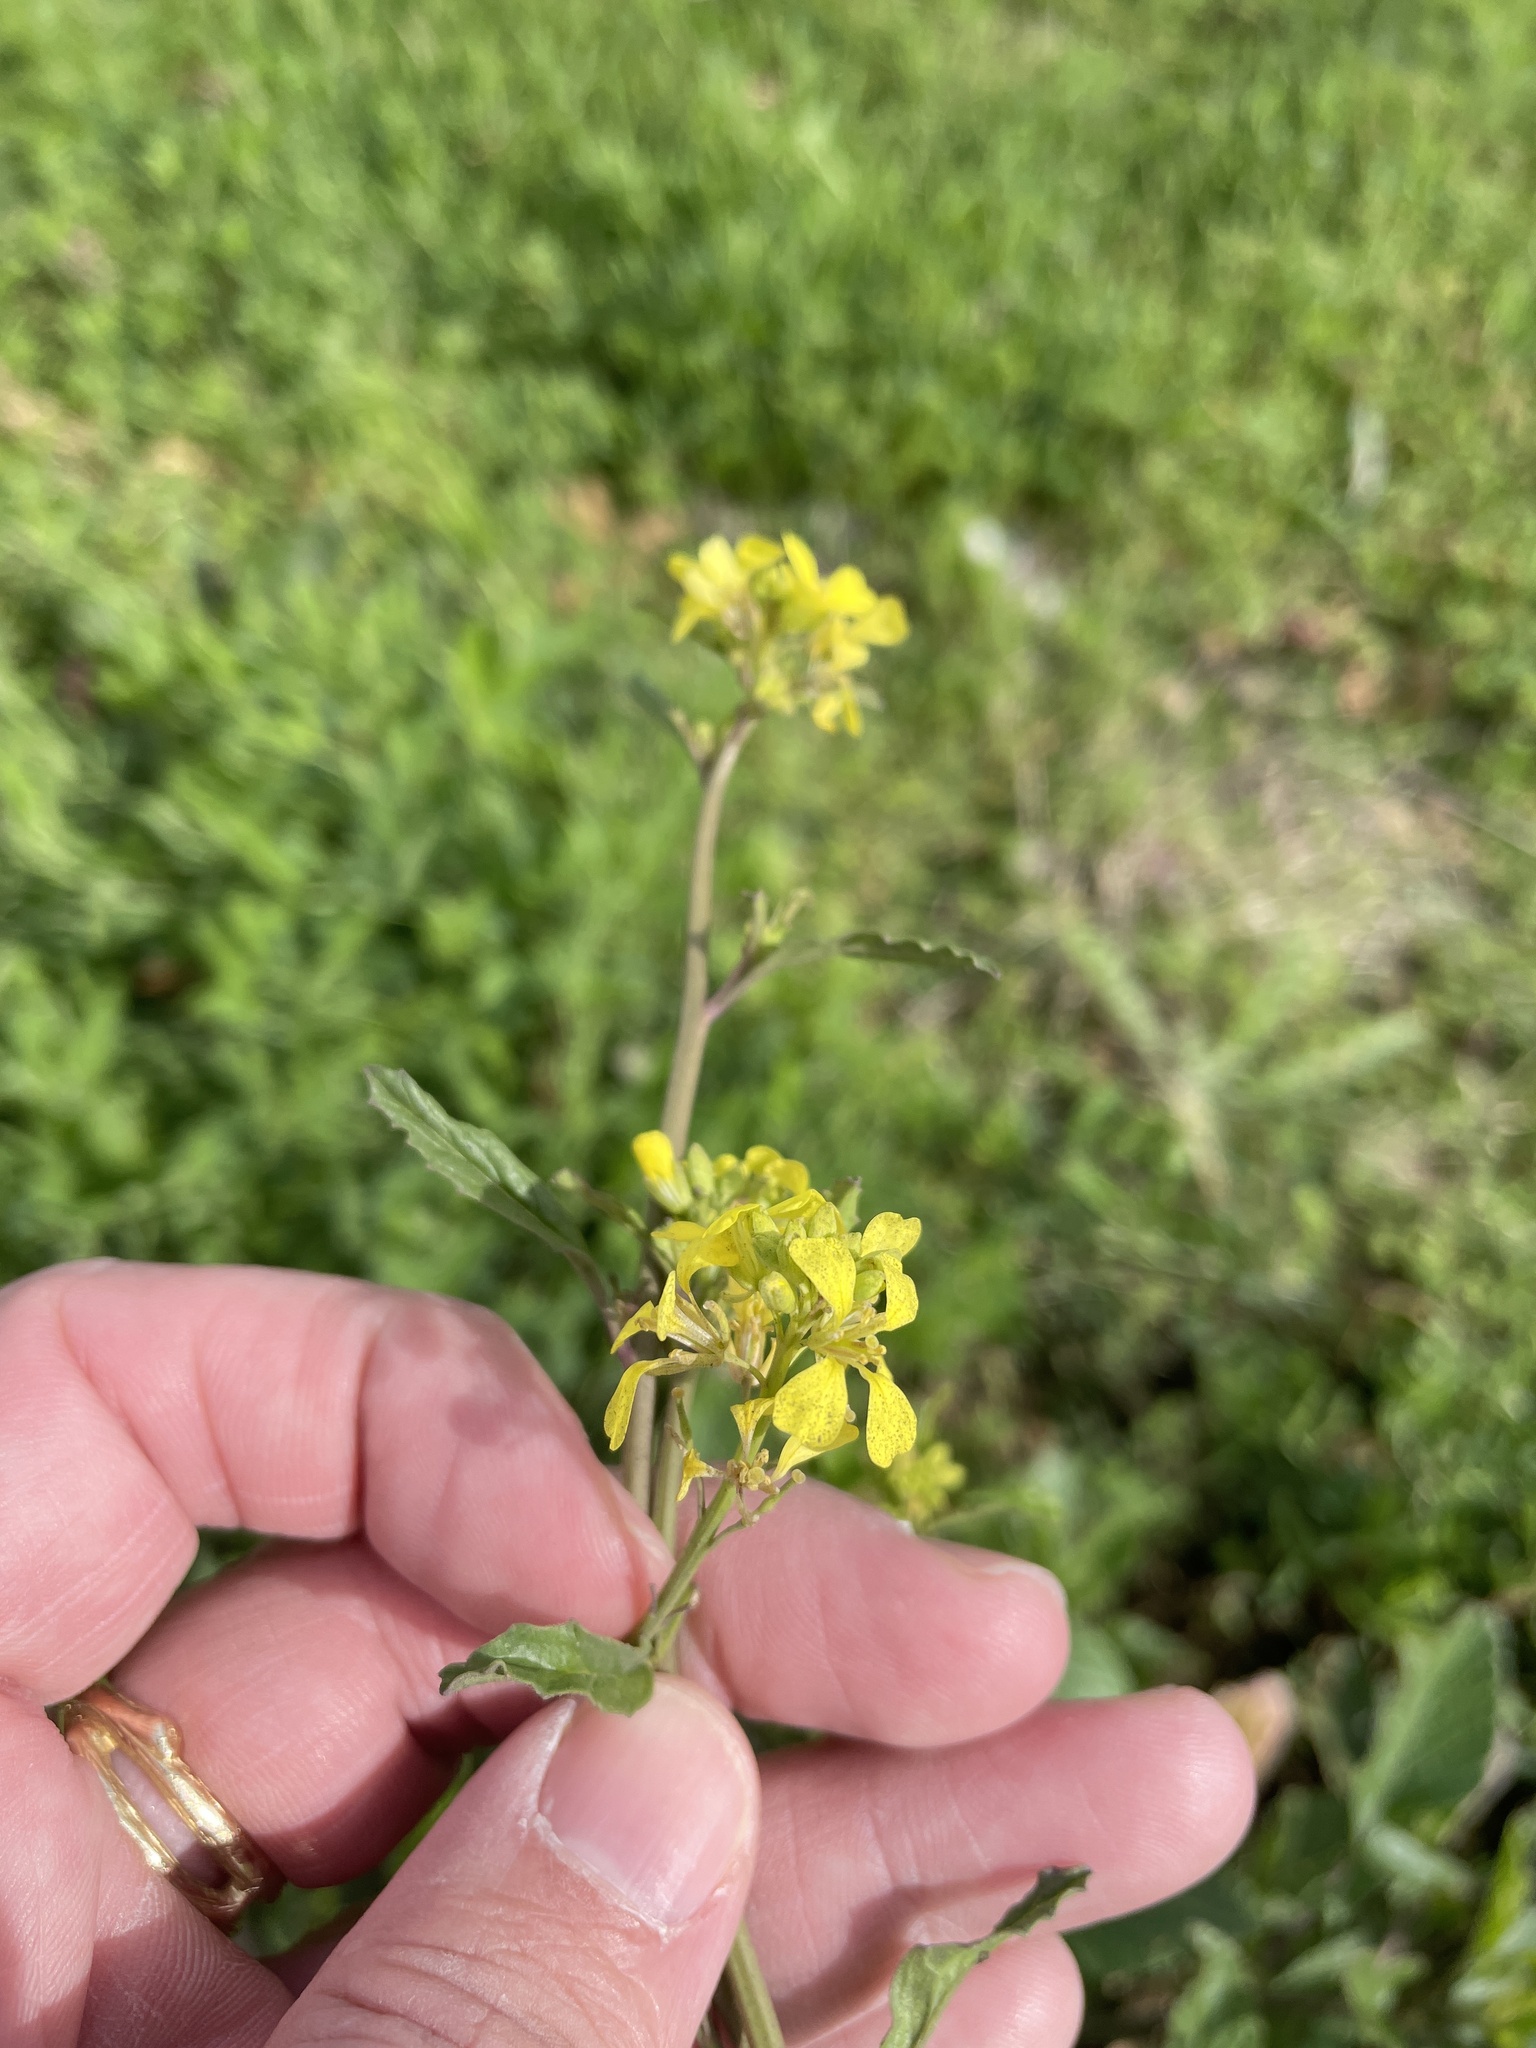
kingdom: Plantae
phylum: Tracheophyta
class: Magnoliopsida
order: Brassicales
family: Brassicaceae
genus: Rapistrum
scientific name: Rapistrum rugosum
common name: Annual bastardcabbage
